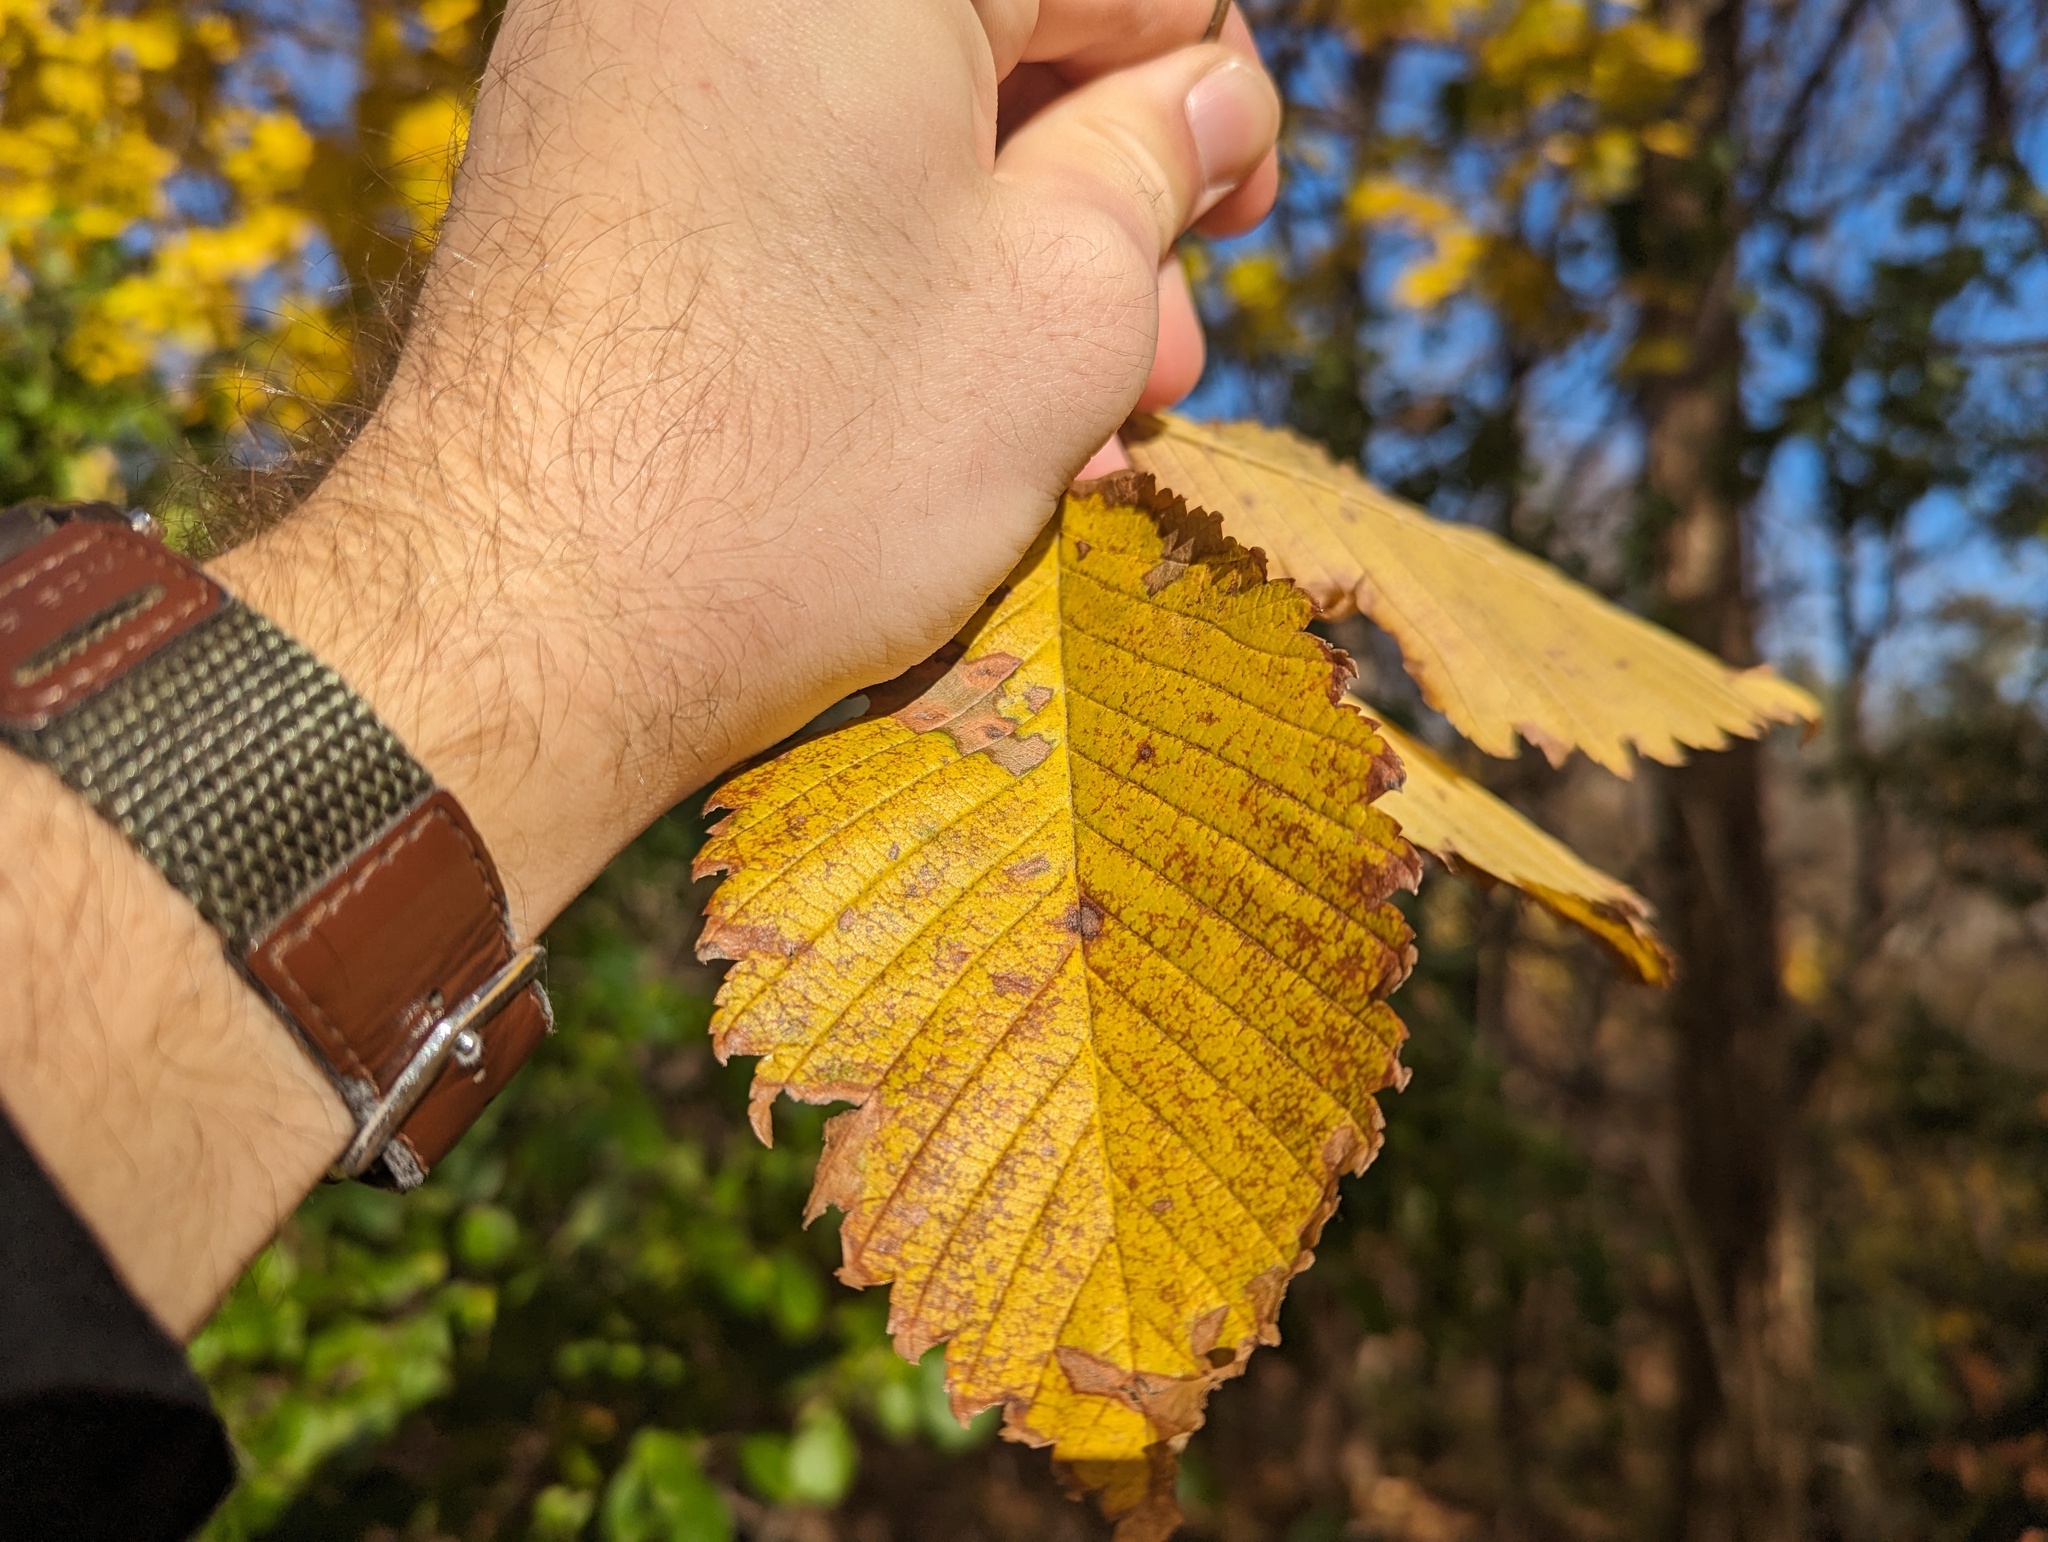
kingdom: Plantae
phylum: Tracheophyta
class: Magnoliopsida
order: Rosales
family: Ulmaceae
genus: Ulmus
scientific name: Ulmus americana
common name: American elm
